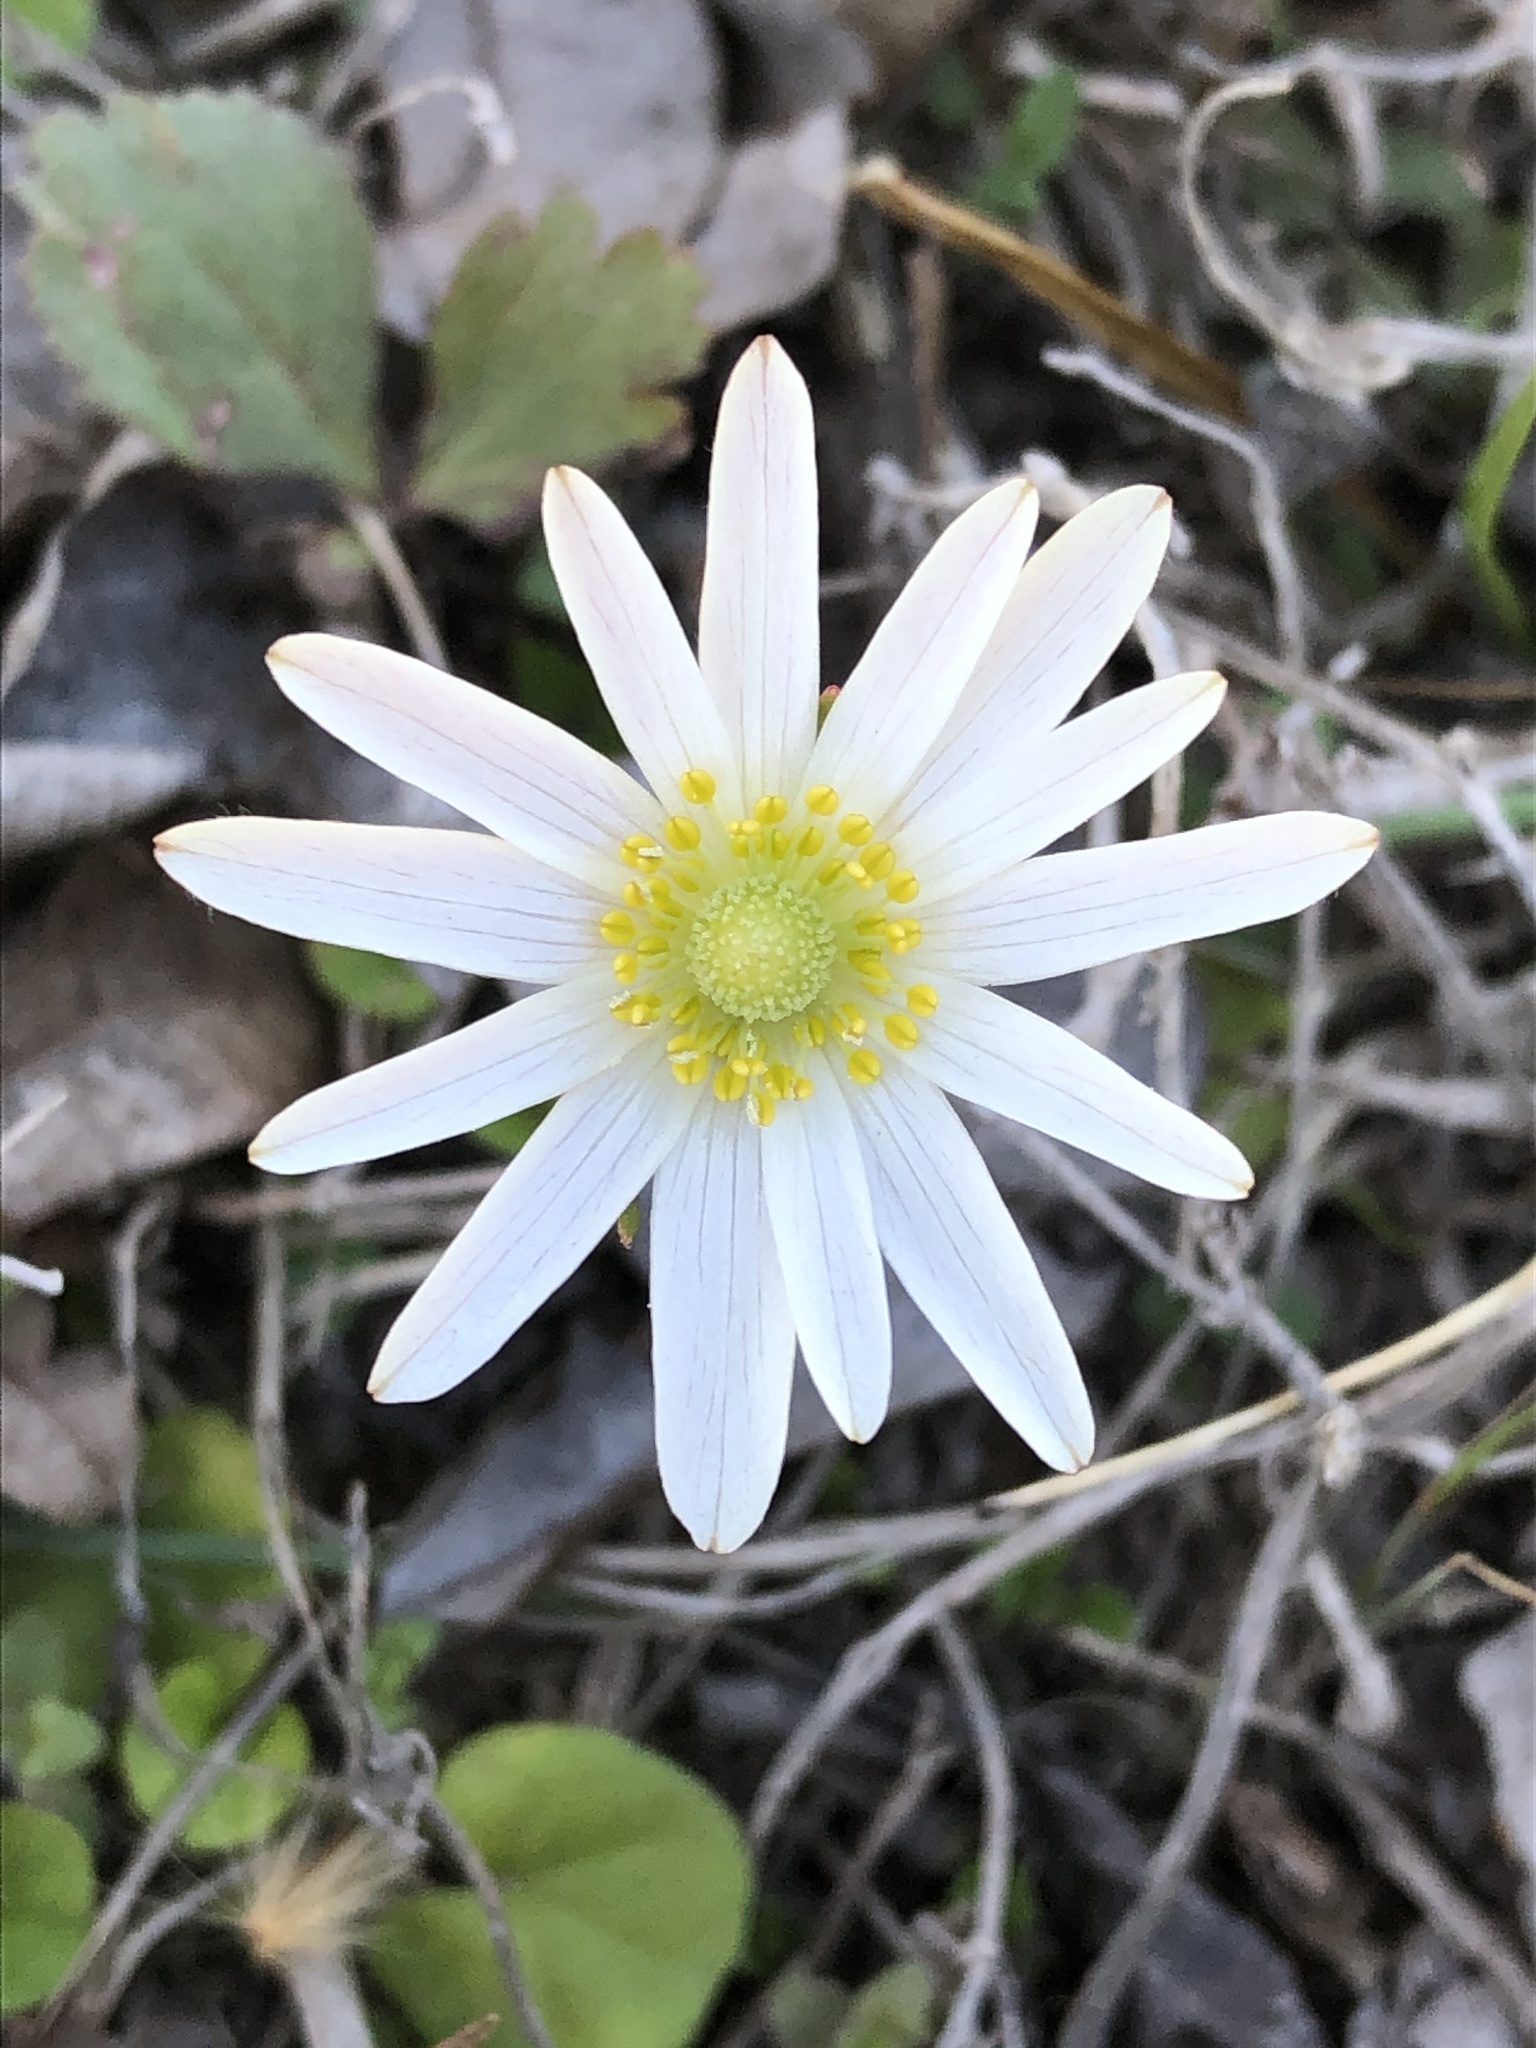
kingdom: Plantae
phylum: Tracheophyta
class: Magnoliopsida
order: Ranunculales
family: Ranunculaceae
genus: Anemone
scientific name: Anemone berlandieri
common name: Ten-petal anemone
